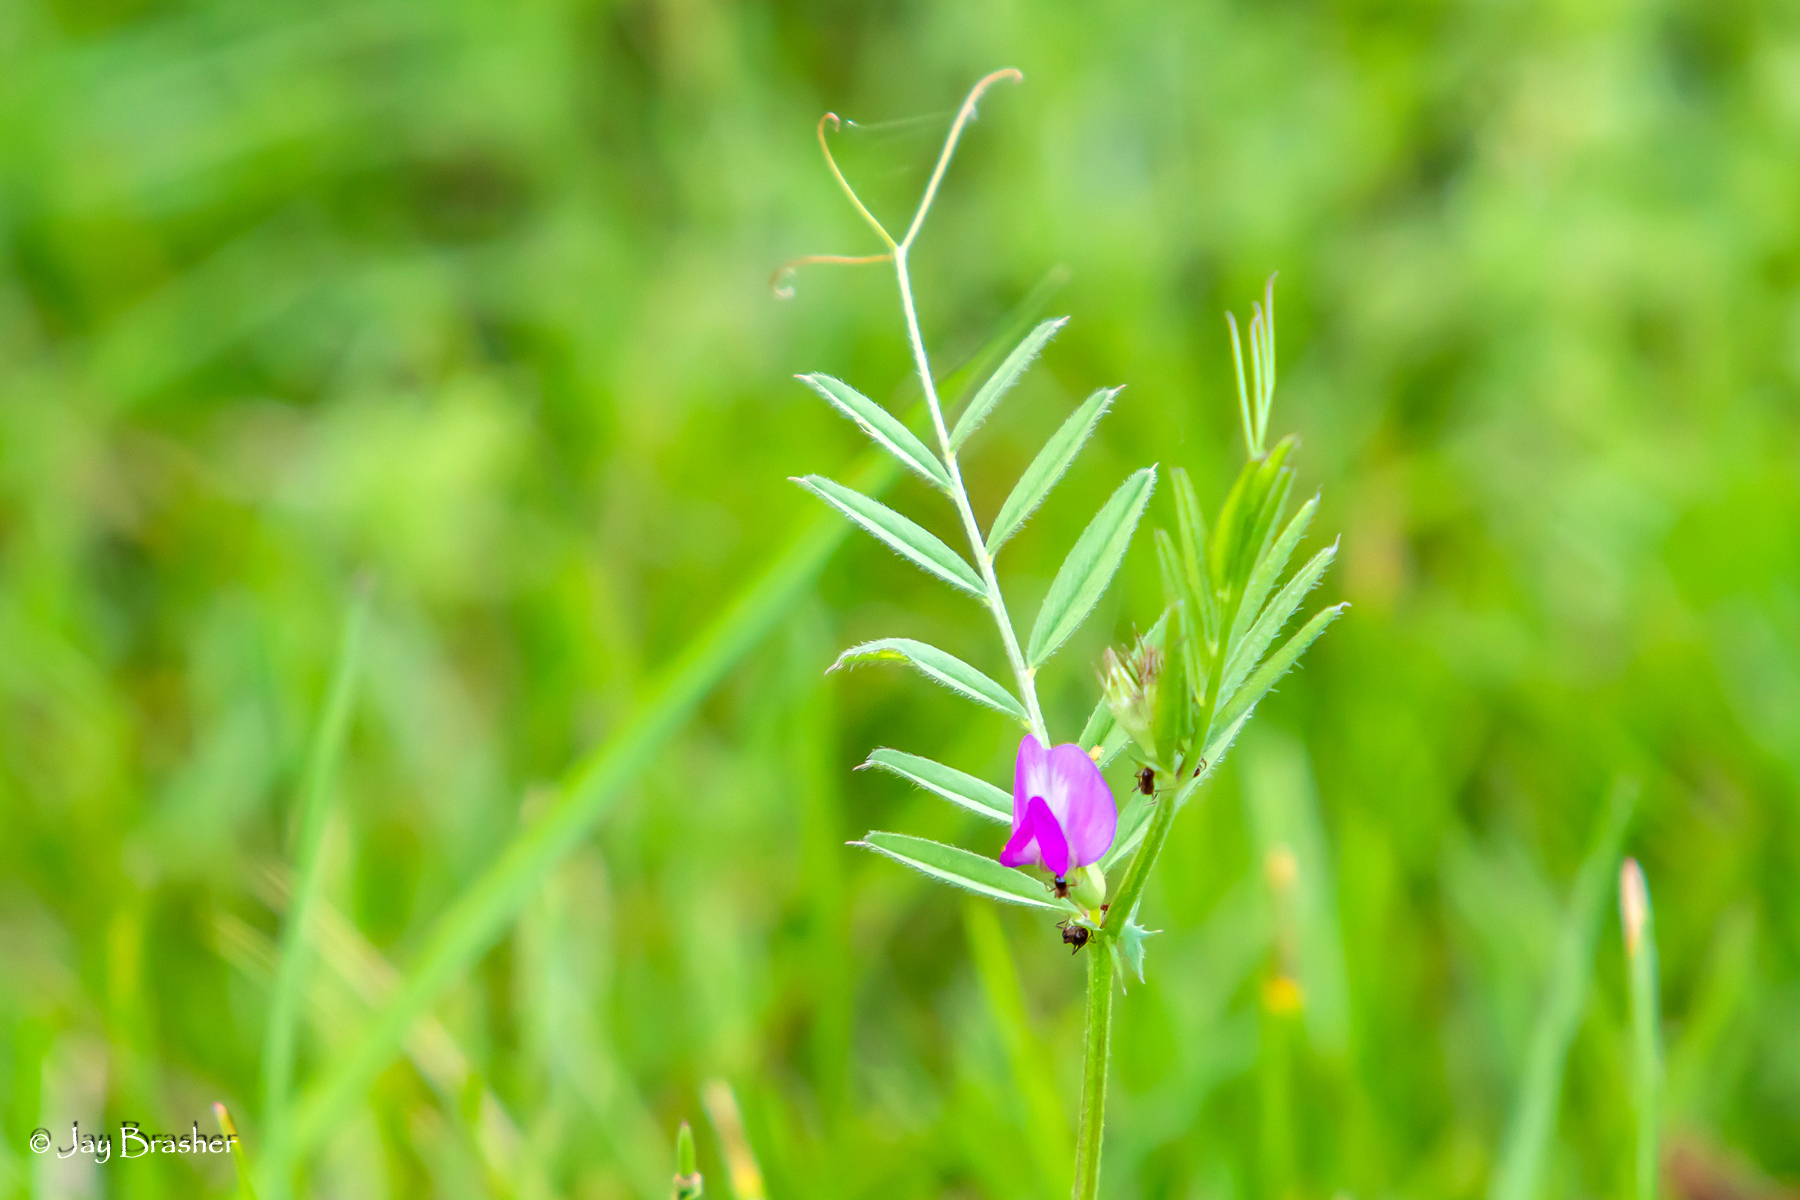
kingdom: Plantae
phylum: Tracheophyta
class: Magnoliopsida
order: Fabales
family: Fabaceae
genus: Vicia
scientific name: Vicia sativa
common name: Garden vetch
